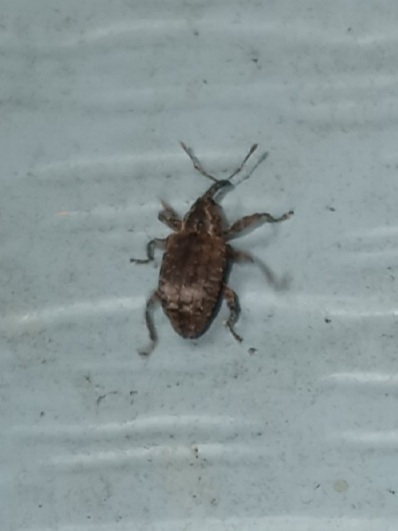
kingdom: Animalia
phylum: Arthropoda
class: Insecta
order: Coleoptera
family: Curculionidae
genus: Conotrachelus
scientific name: Conotrachelus seniculus
